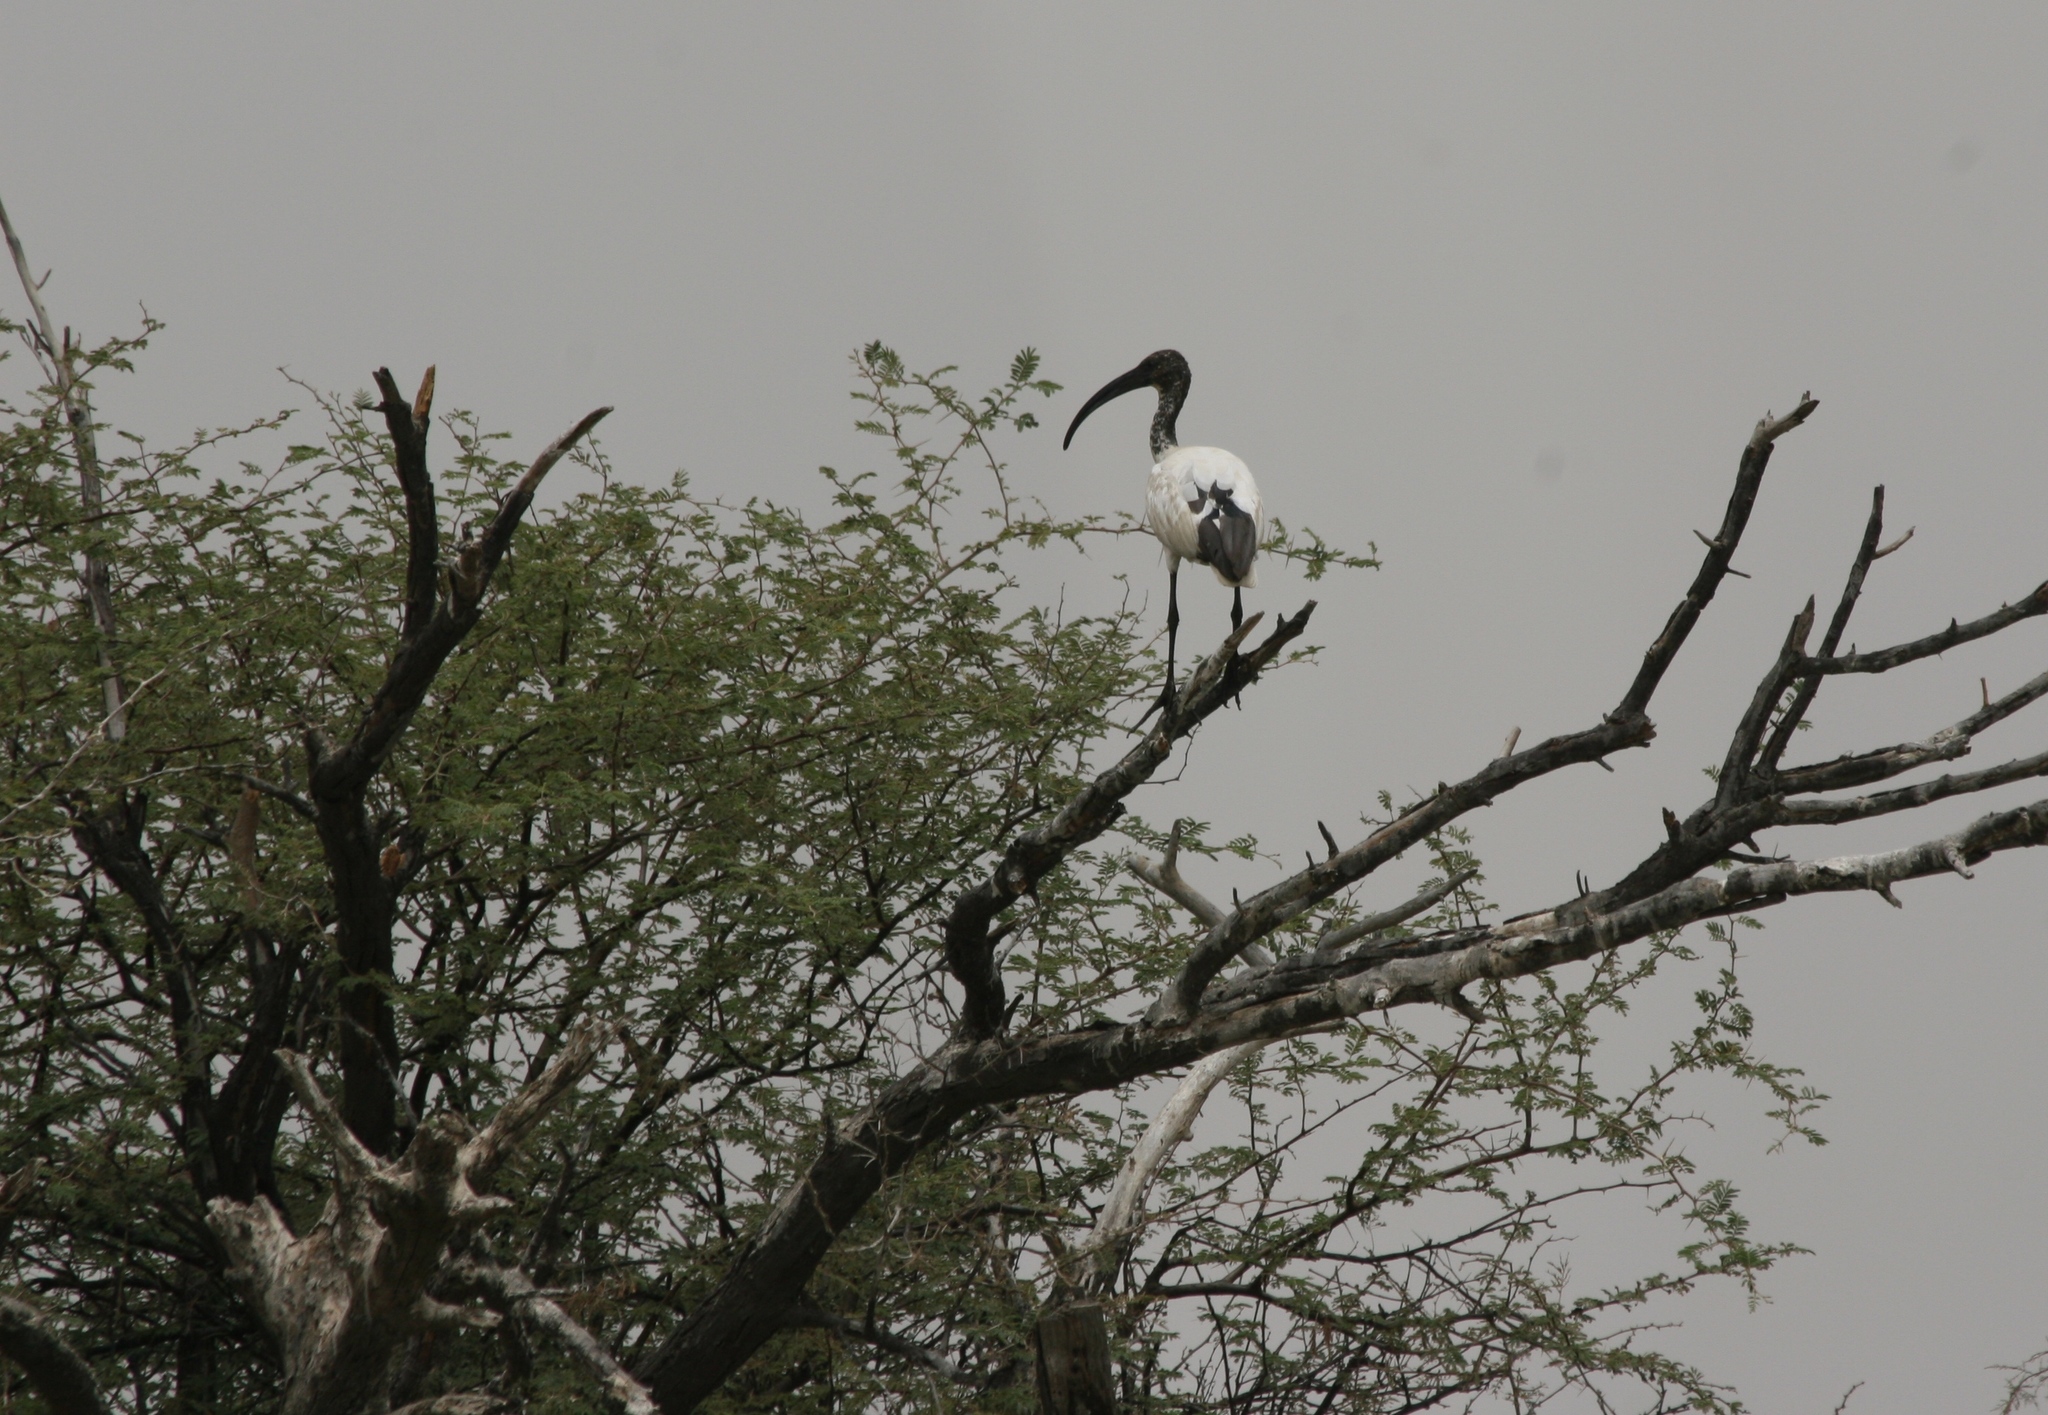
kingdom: Animalia
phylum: Chordata
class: Aves
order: Pelecaniformes
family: Threskiornithidae
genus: Threskiornis
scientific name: Threskiornis aethiopicus
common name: Sacred ibis
